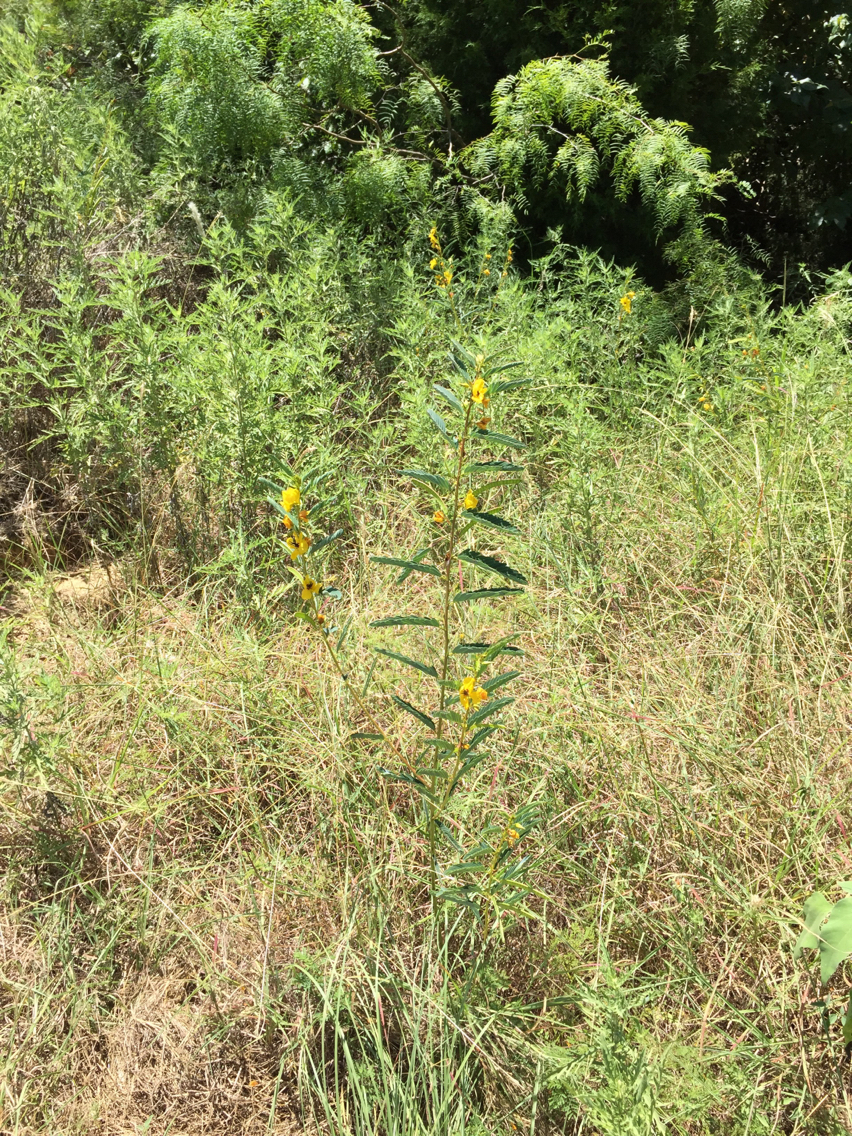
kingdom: Plantae
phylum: Tracheophyta
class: Magnoliopsida
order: Fabales
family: Fabaceae
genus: Chamaecrista
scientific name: Chamaecrista fasciculata
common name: Golden cassia
